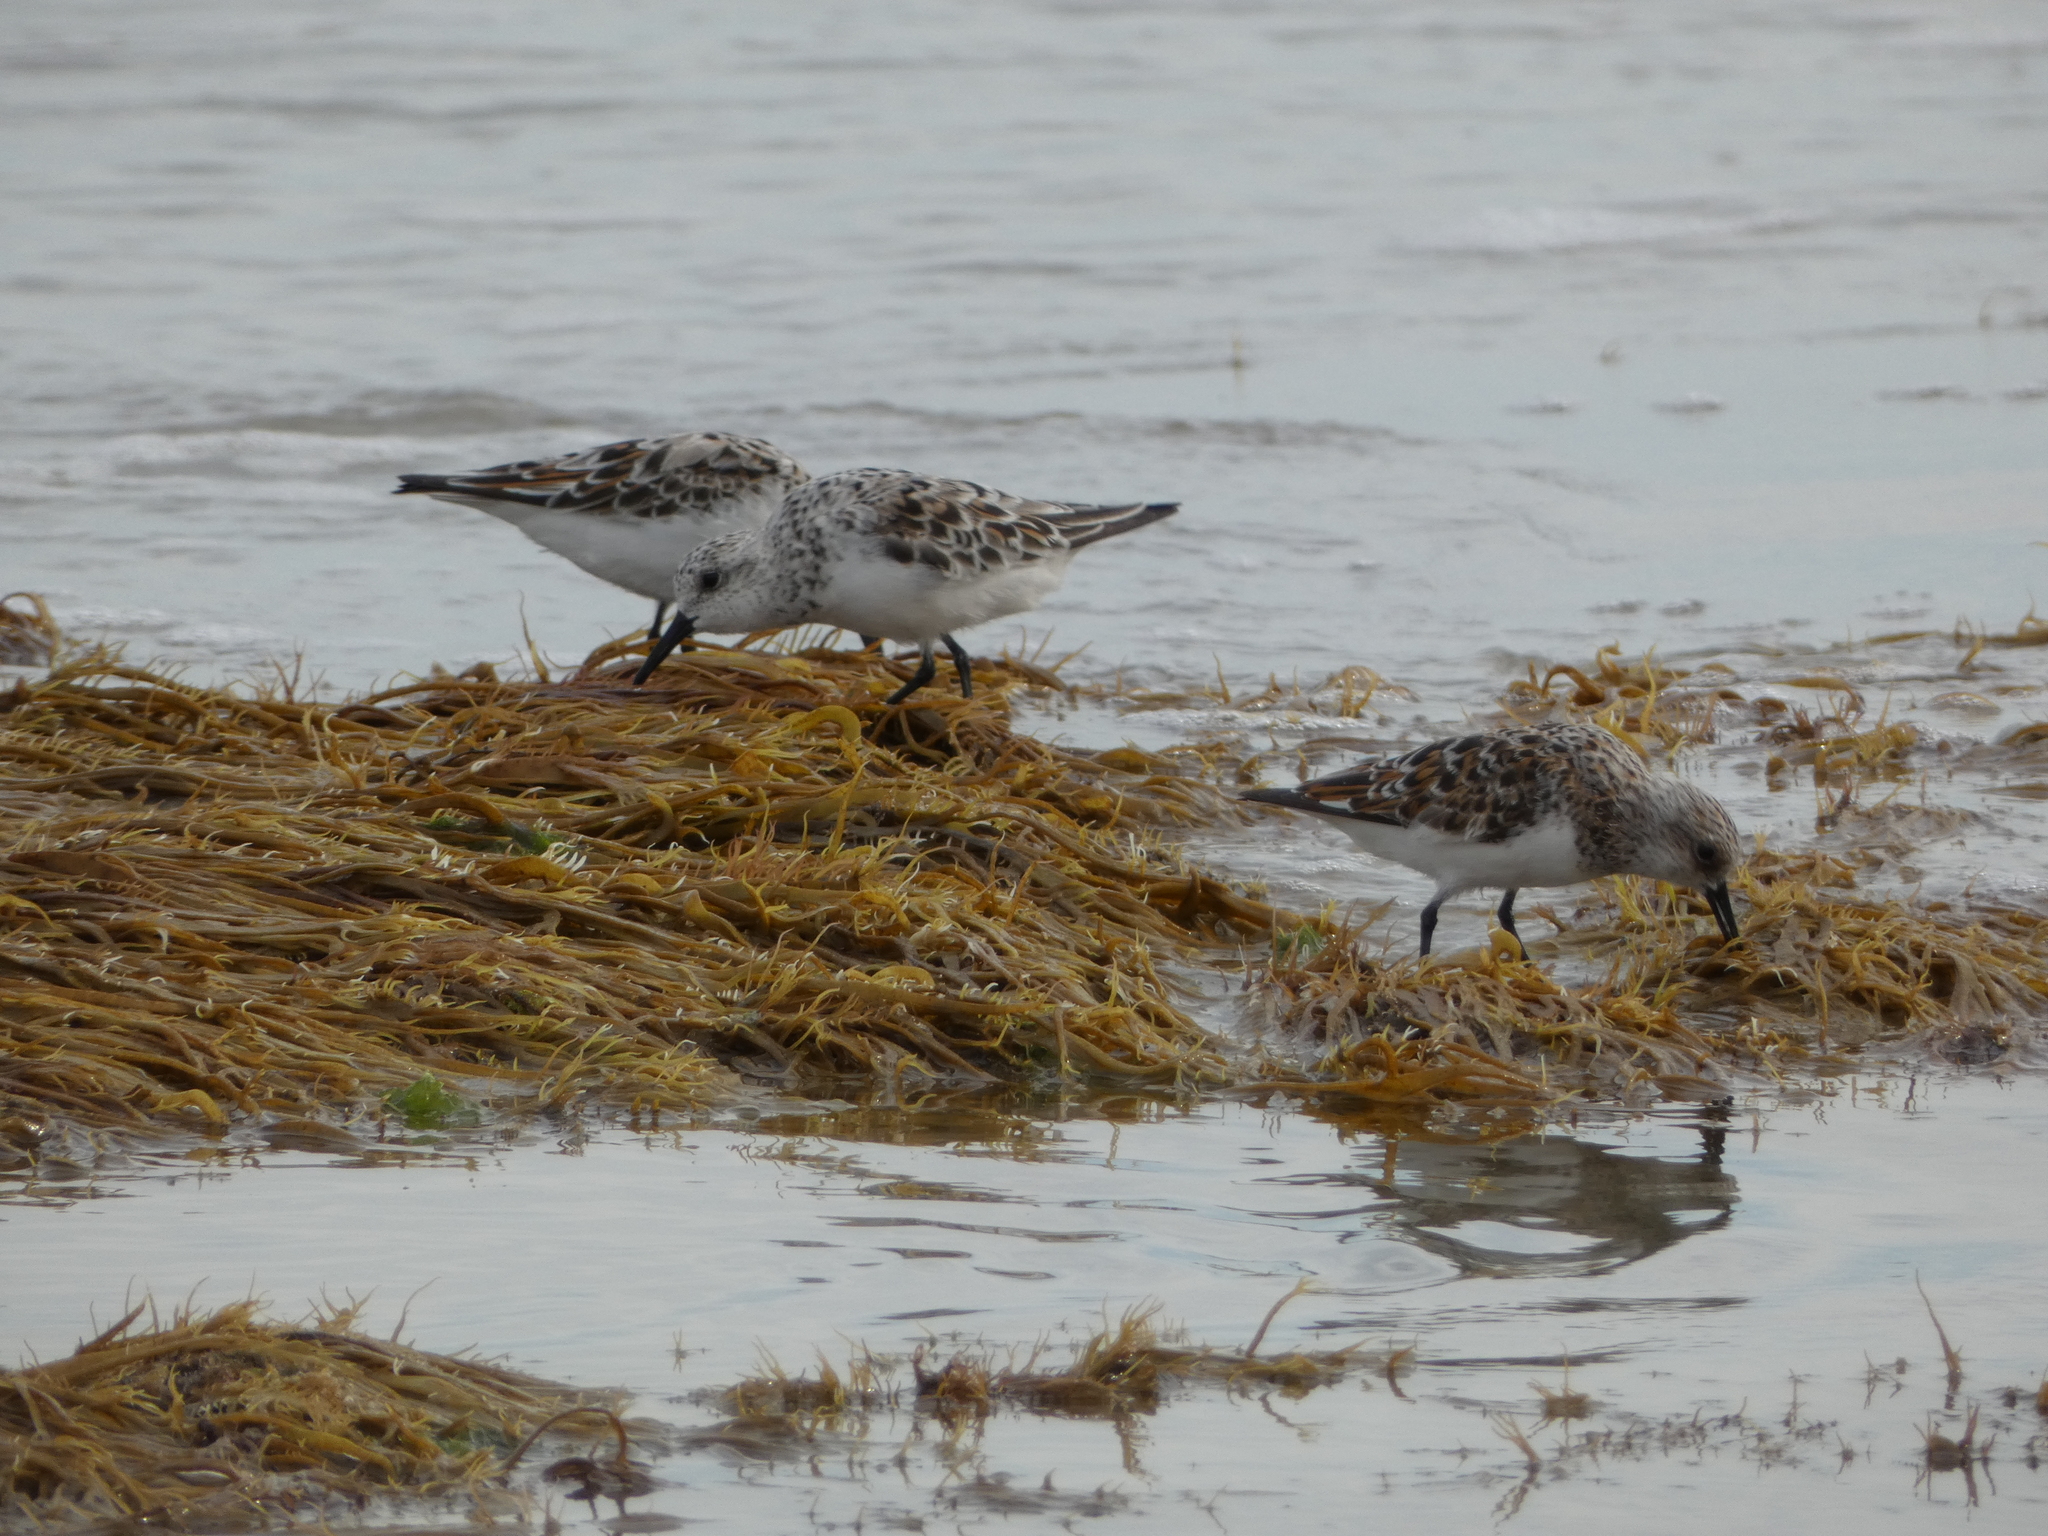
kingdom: Animalia
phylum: Chordata
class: Aves
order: Charadriiformes
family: Scolopacidae
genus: Calidris
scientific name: Calidris alba
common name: Sanderling
